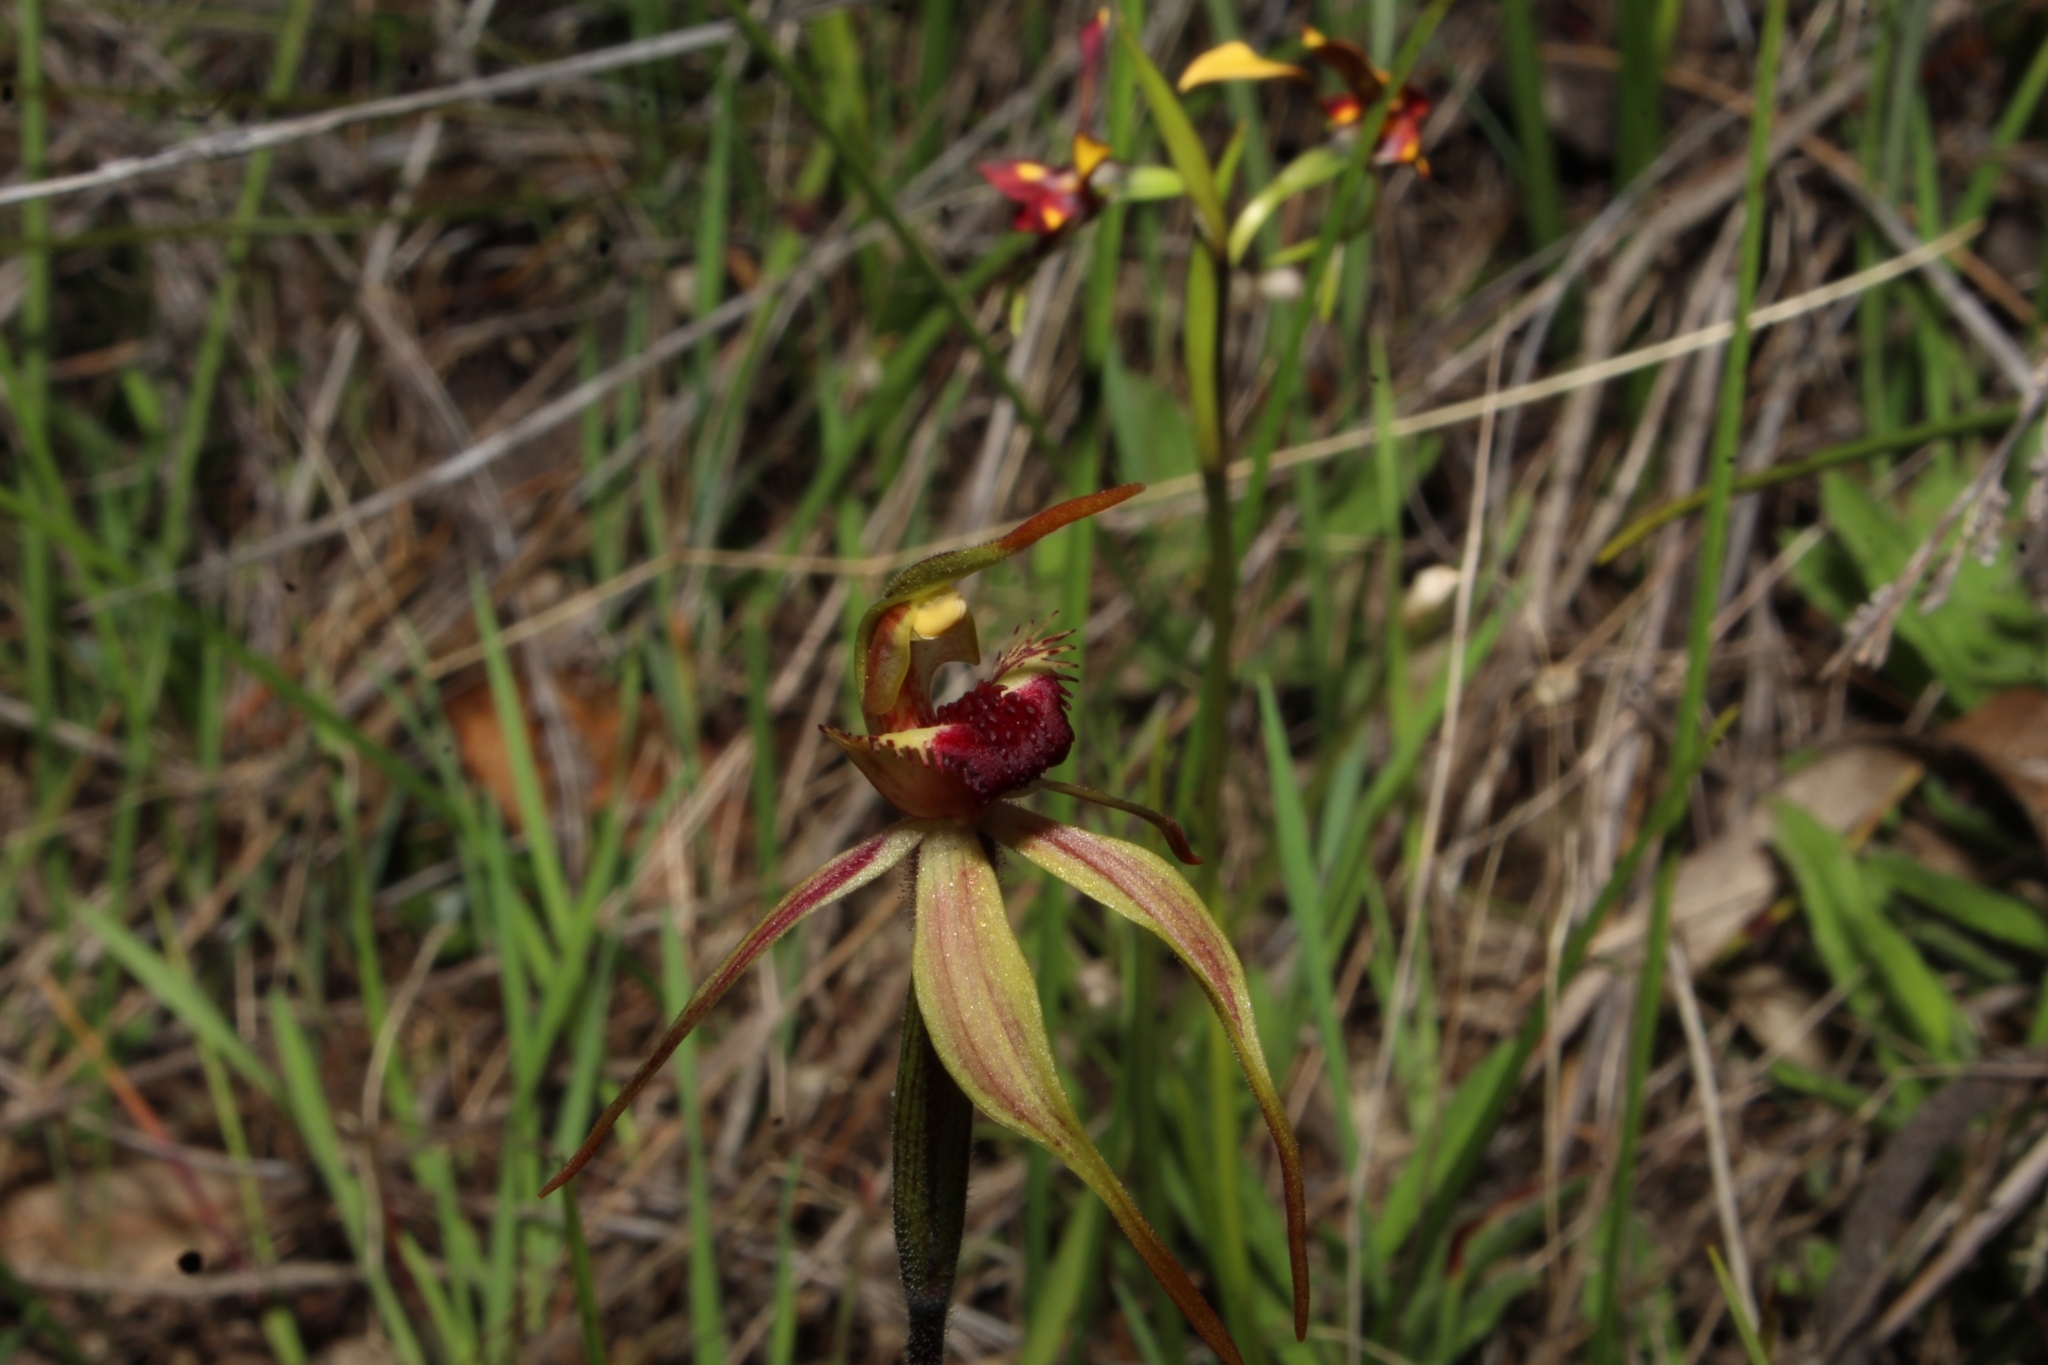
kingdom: Plantae
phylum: Tracheophyta
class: Liliopsida
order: Asparagales
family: Orchidaceae
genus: Caladenia
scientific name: Caladenia longiclavata
